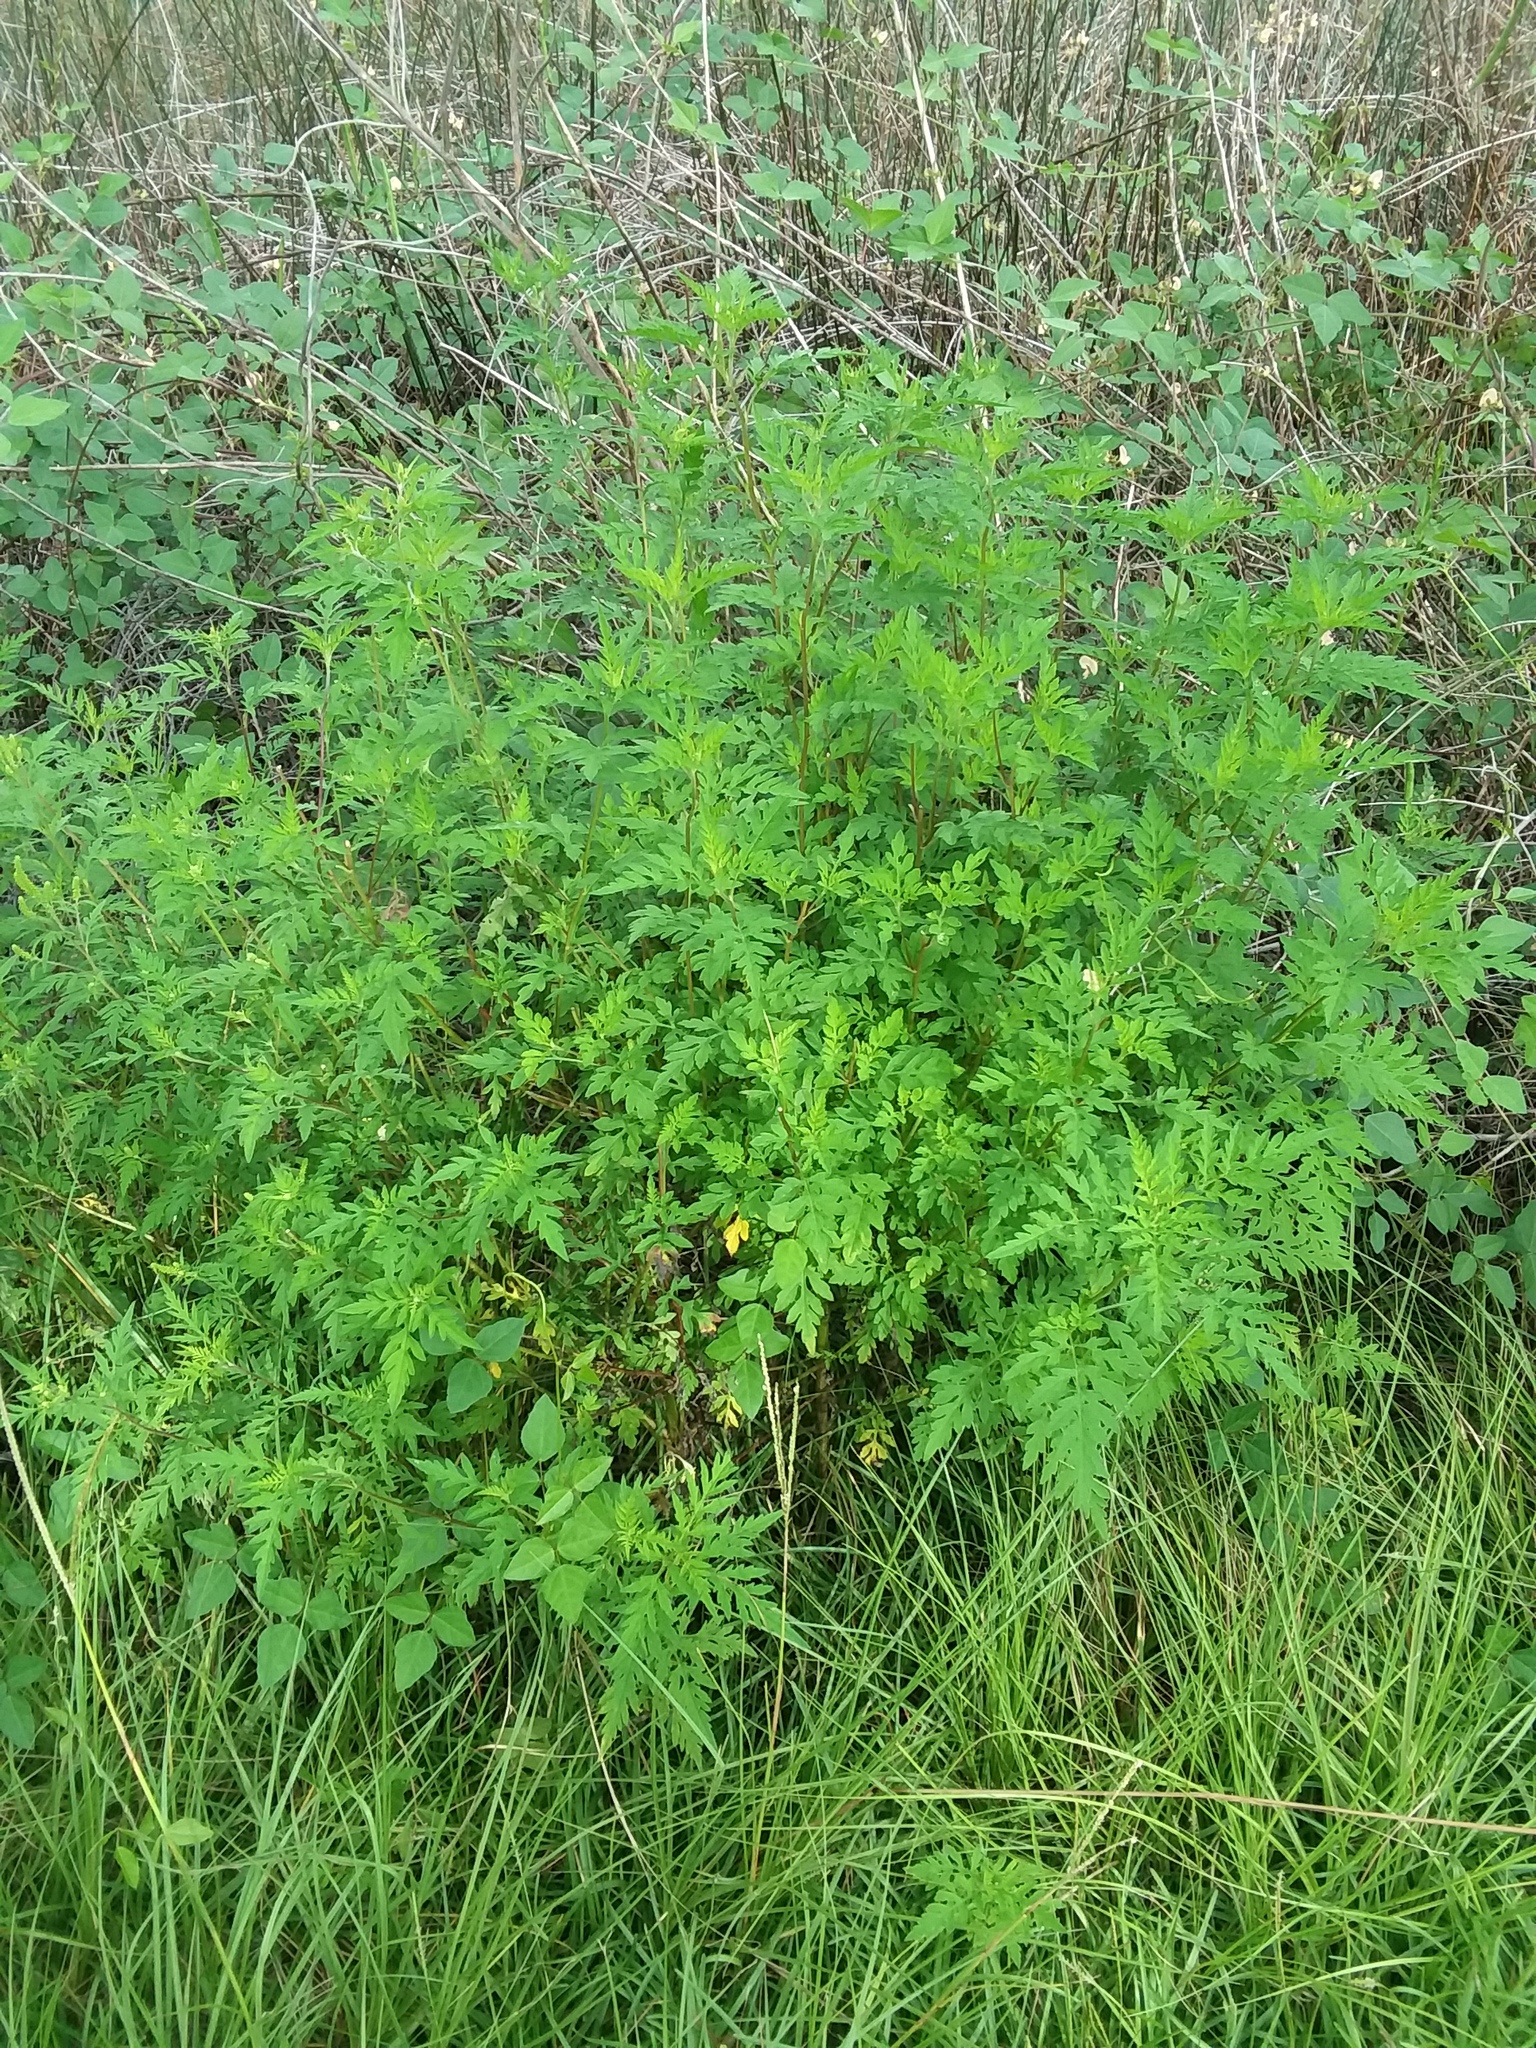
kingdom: Plantae
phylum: Tracheophyta
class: Magnoliopsida
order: Asterales
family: Asteraceae
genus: Ambrosia
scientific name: Ambrosia artemisiifolia
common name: Annual ragweed
